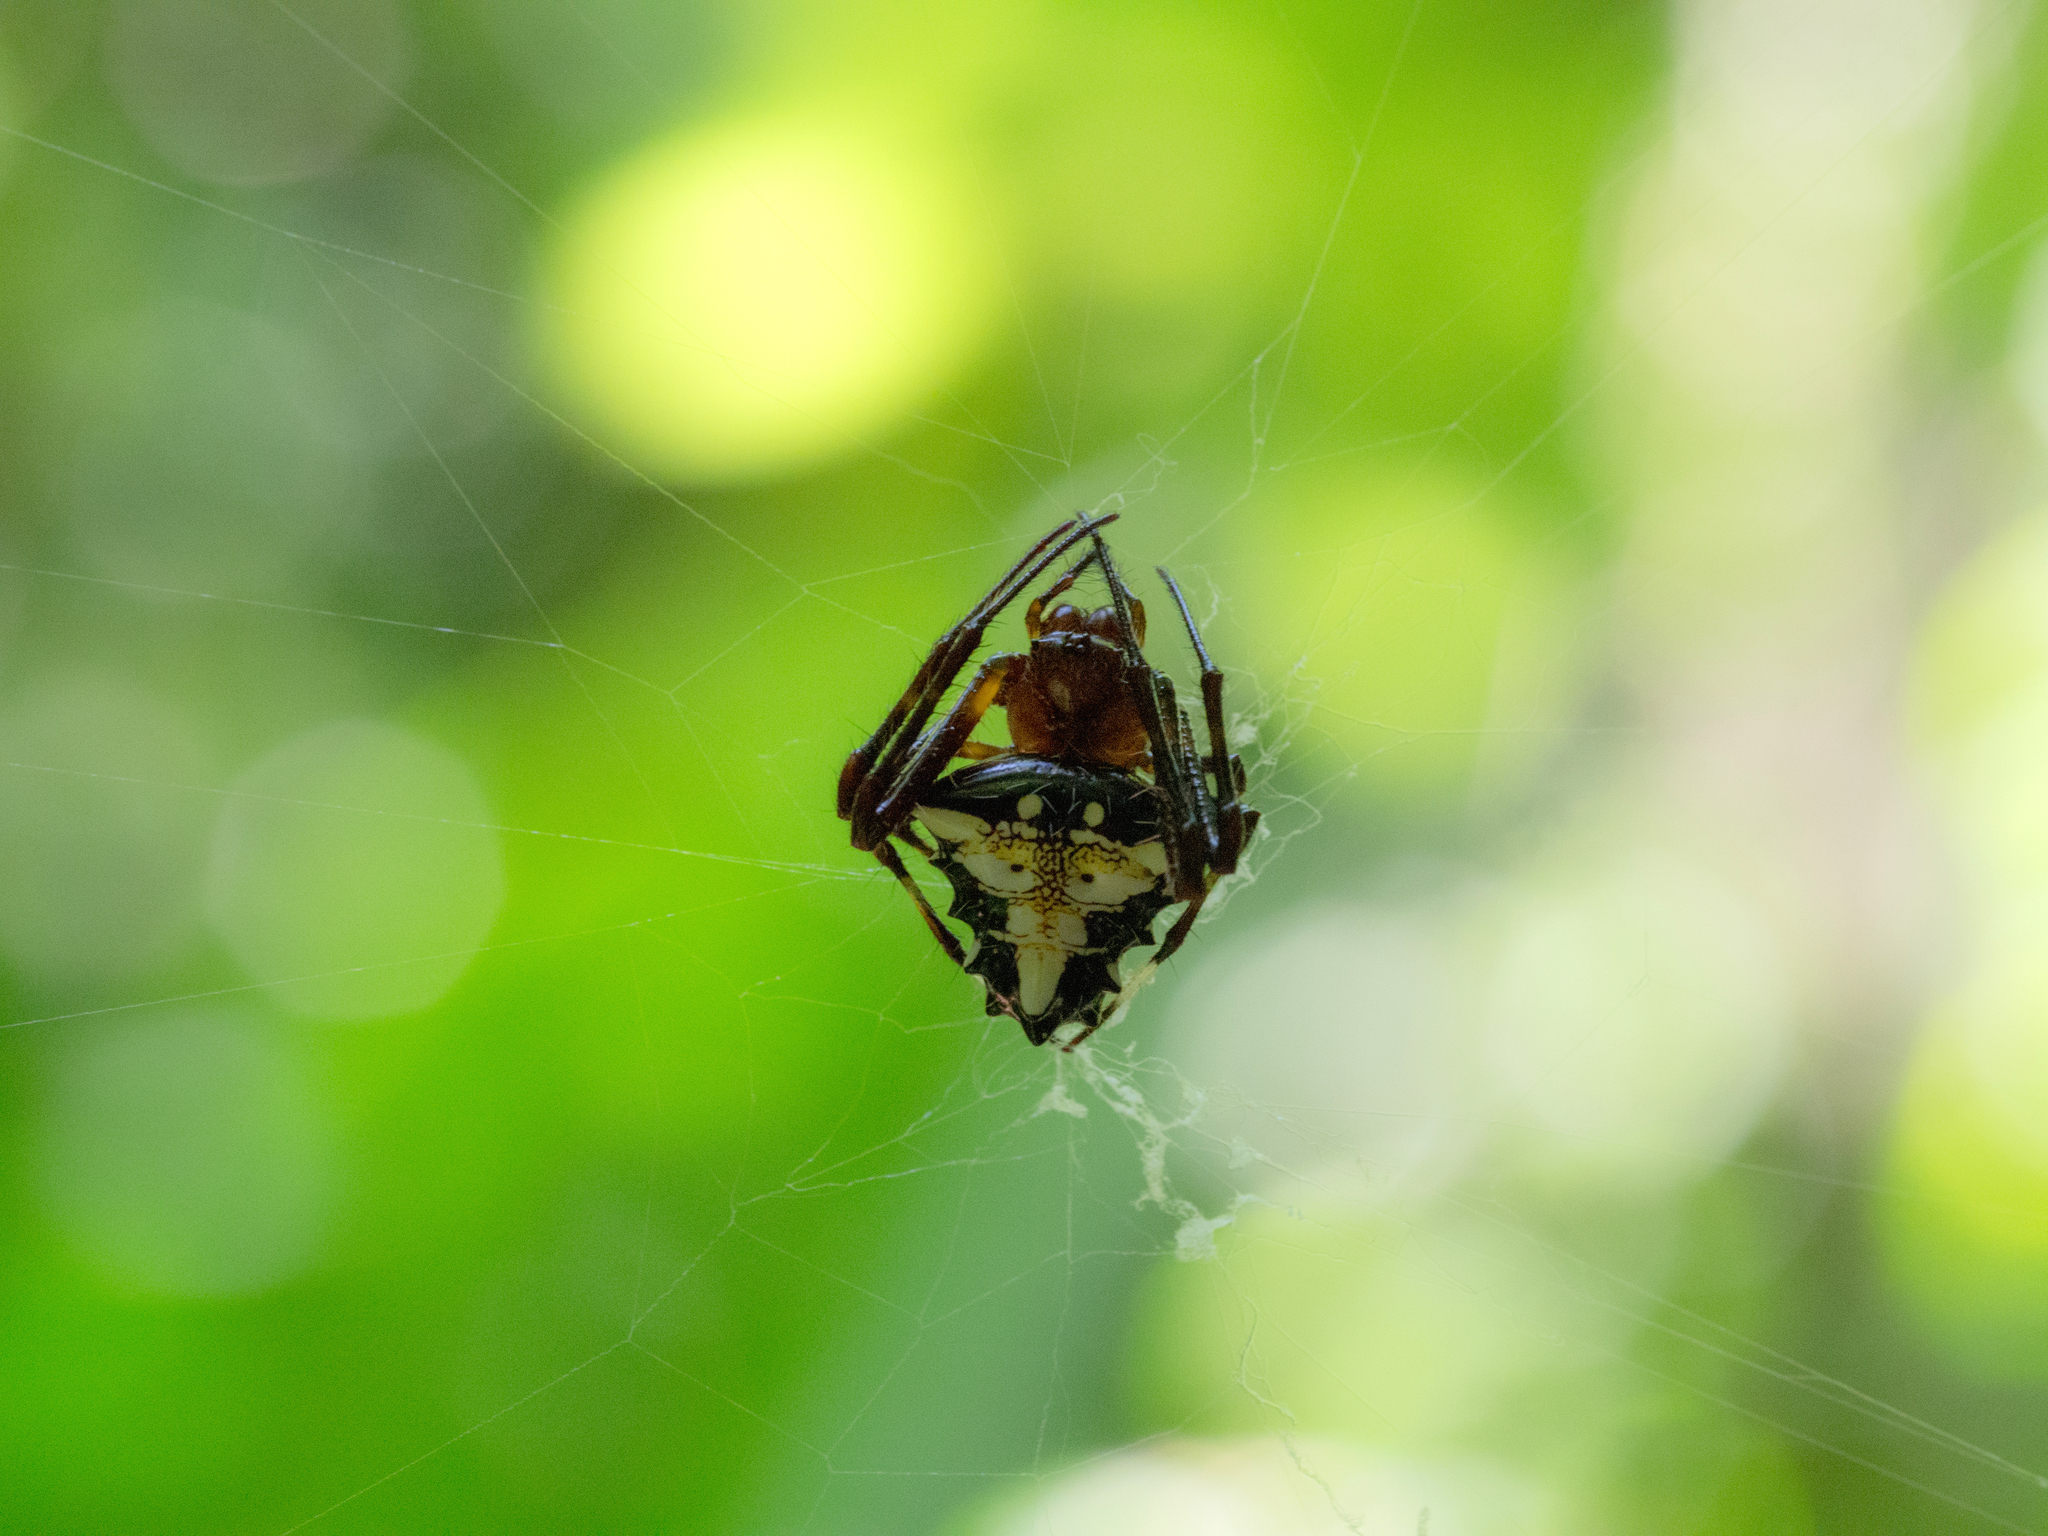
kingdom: Animalia
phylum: Arthropoda
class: Arachnida
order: Araneae
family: Araneidae
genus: Verrucosa
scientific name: Verrucosa arenata
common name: Orb weavers
